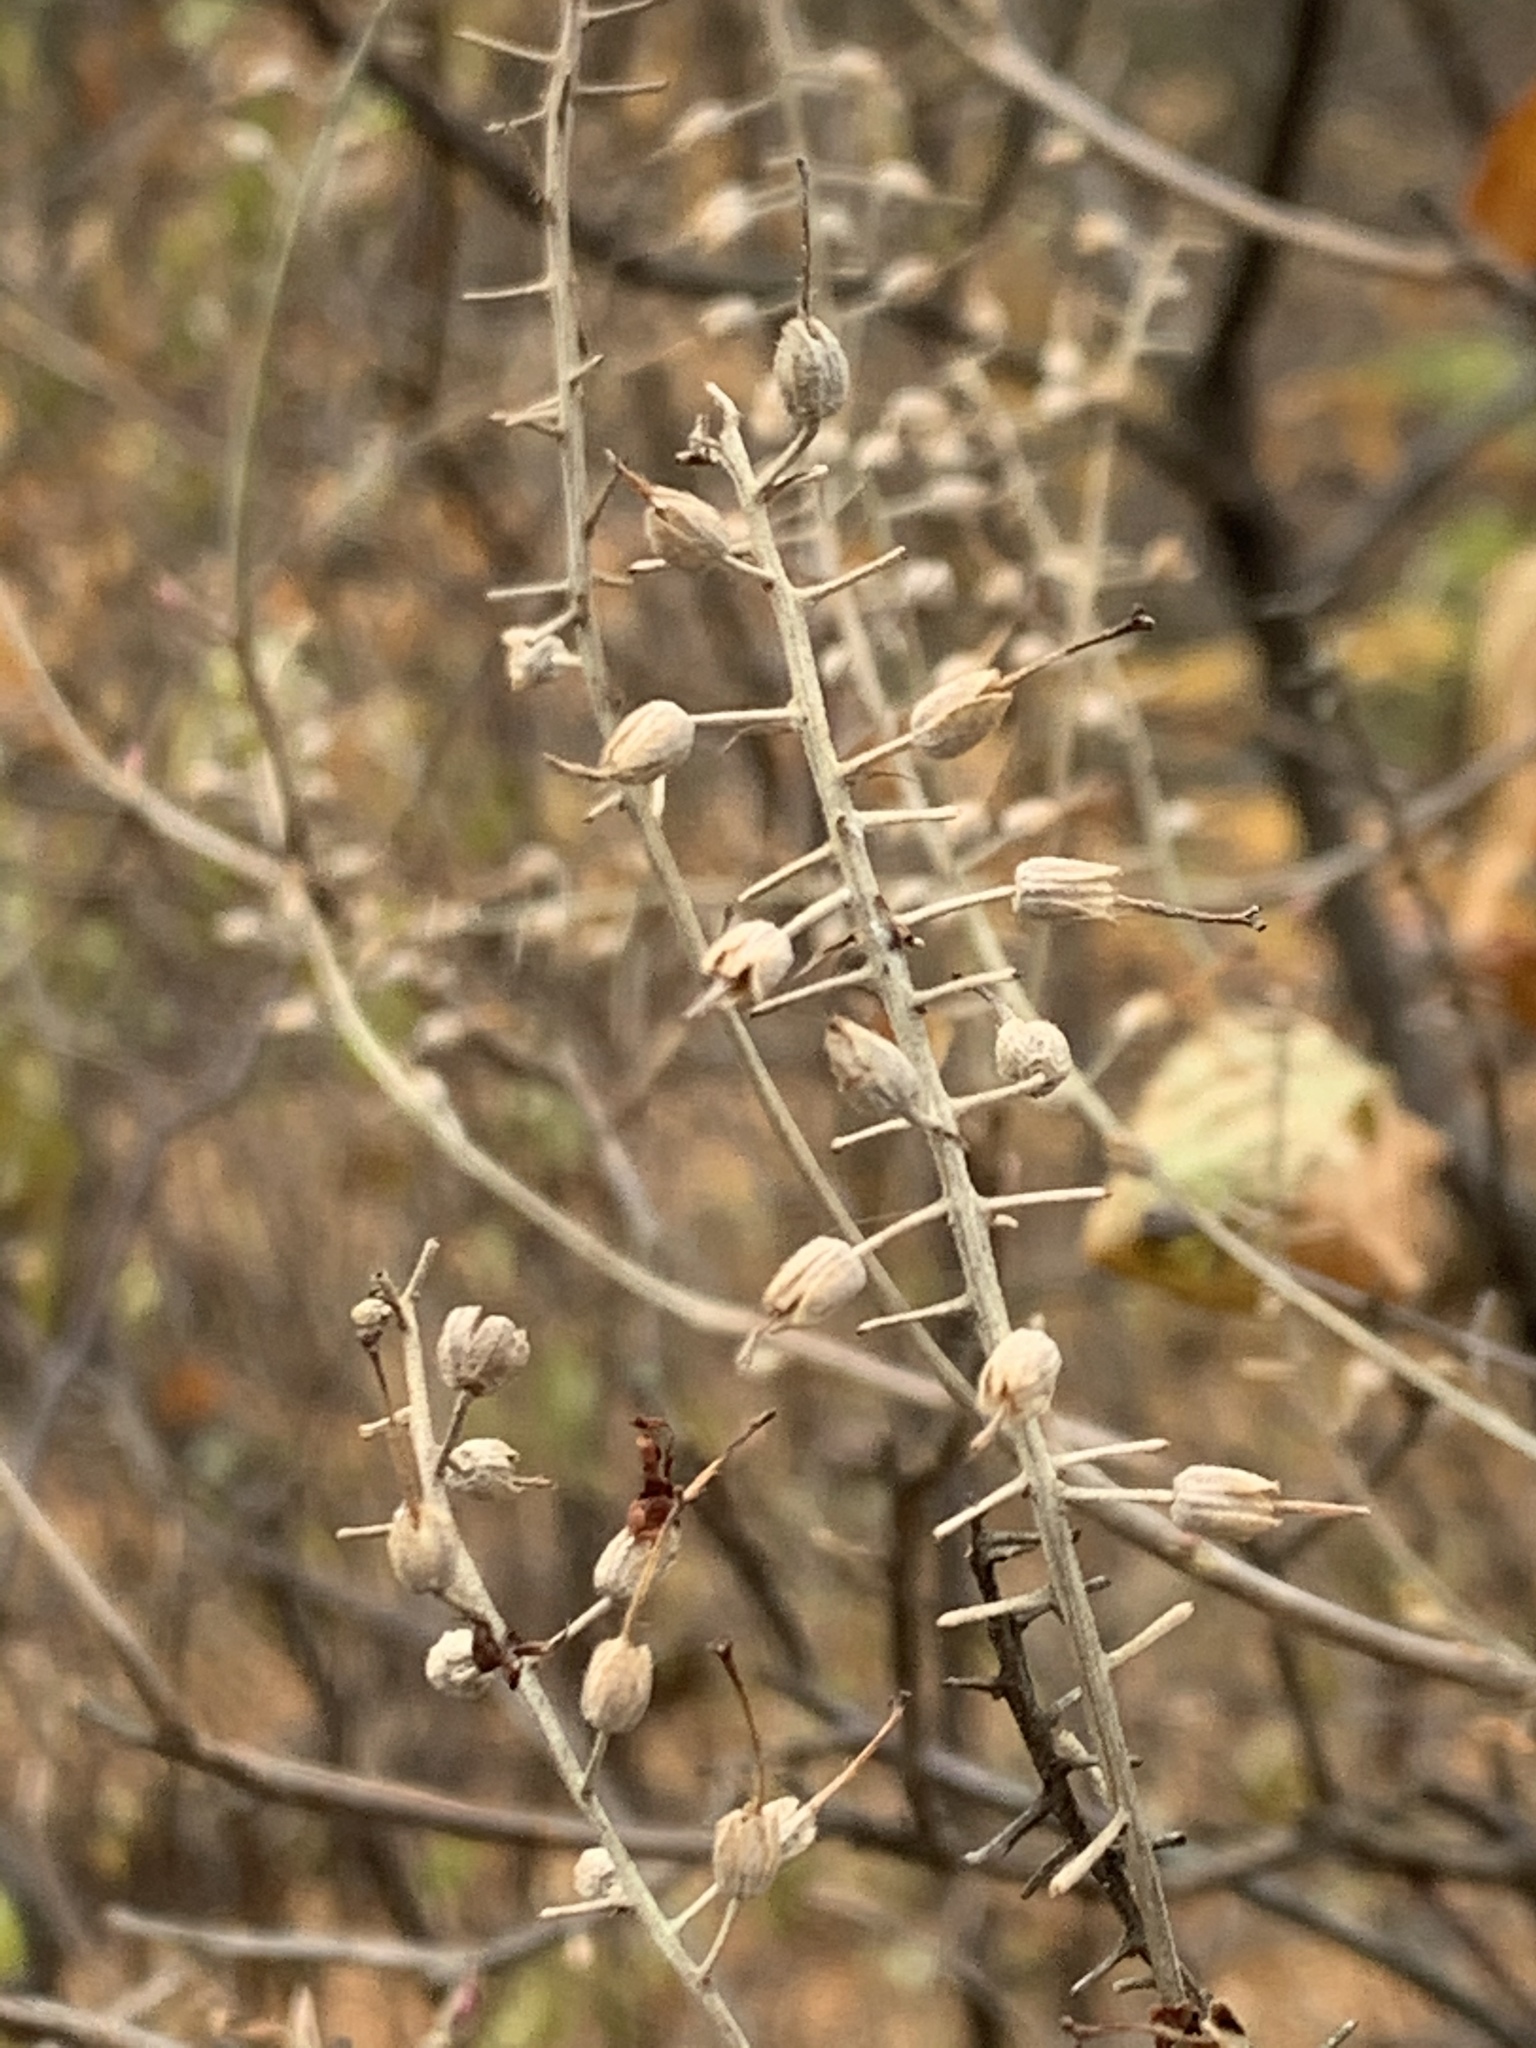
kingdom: Plantae
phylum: Tracheophyta
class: Magnoliopsida
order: Ericales
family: Clethraceae
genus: Clethra
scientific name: Clethra alnifolia
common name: Sweet pepperbush
